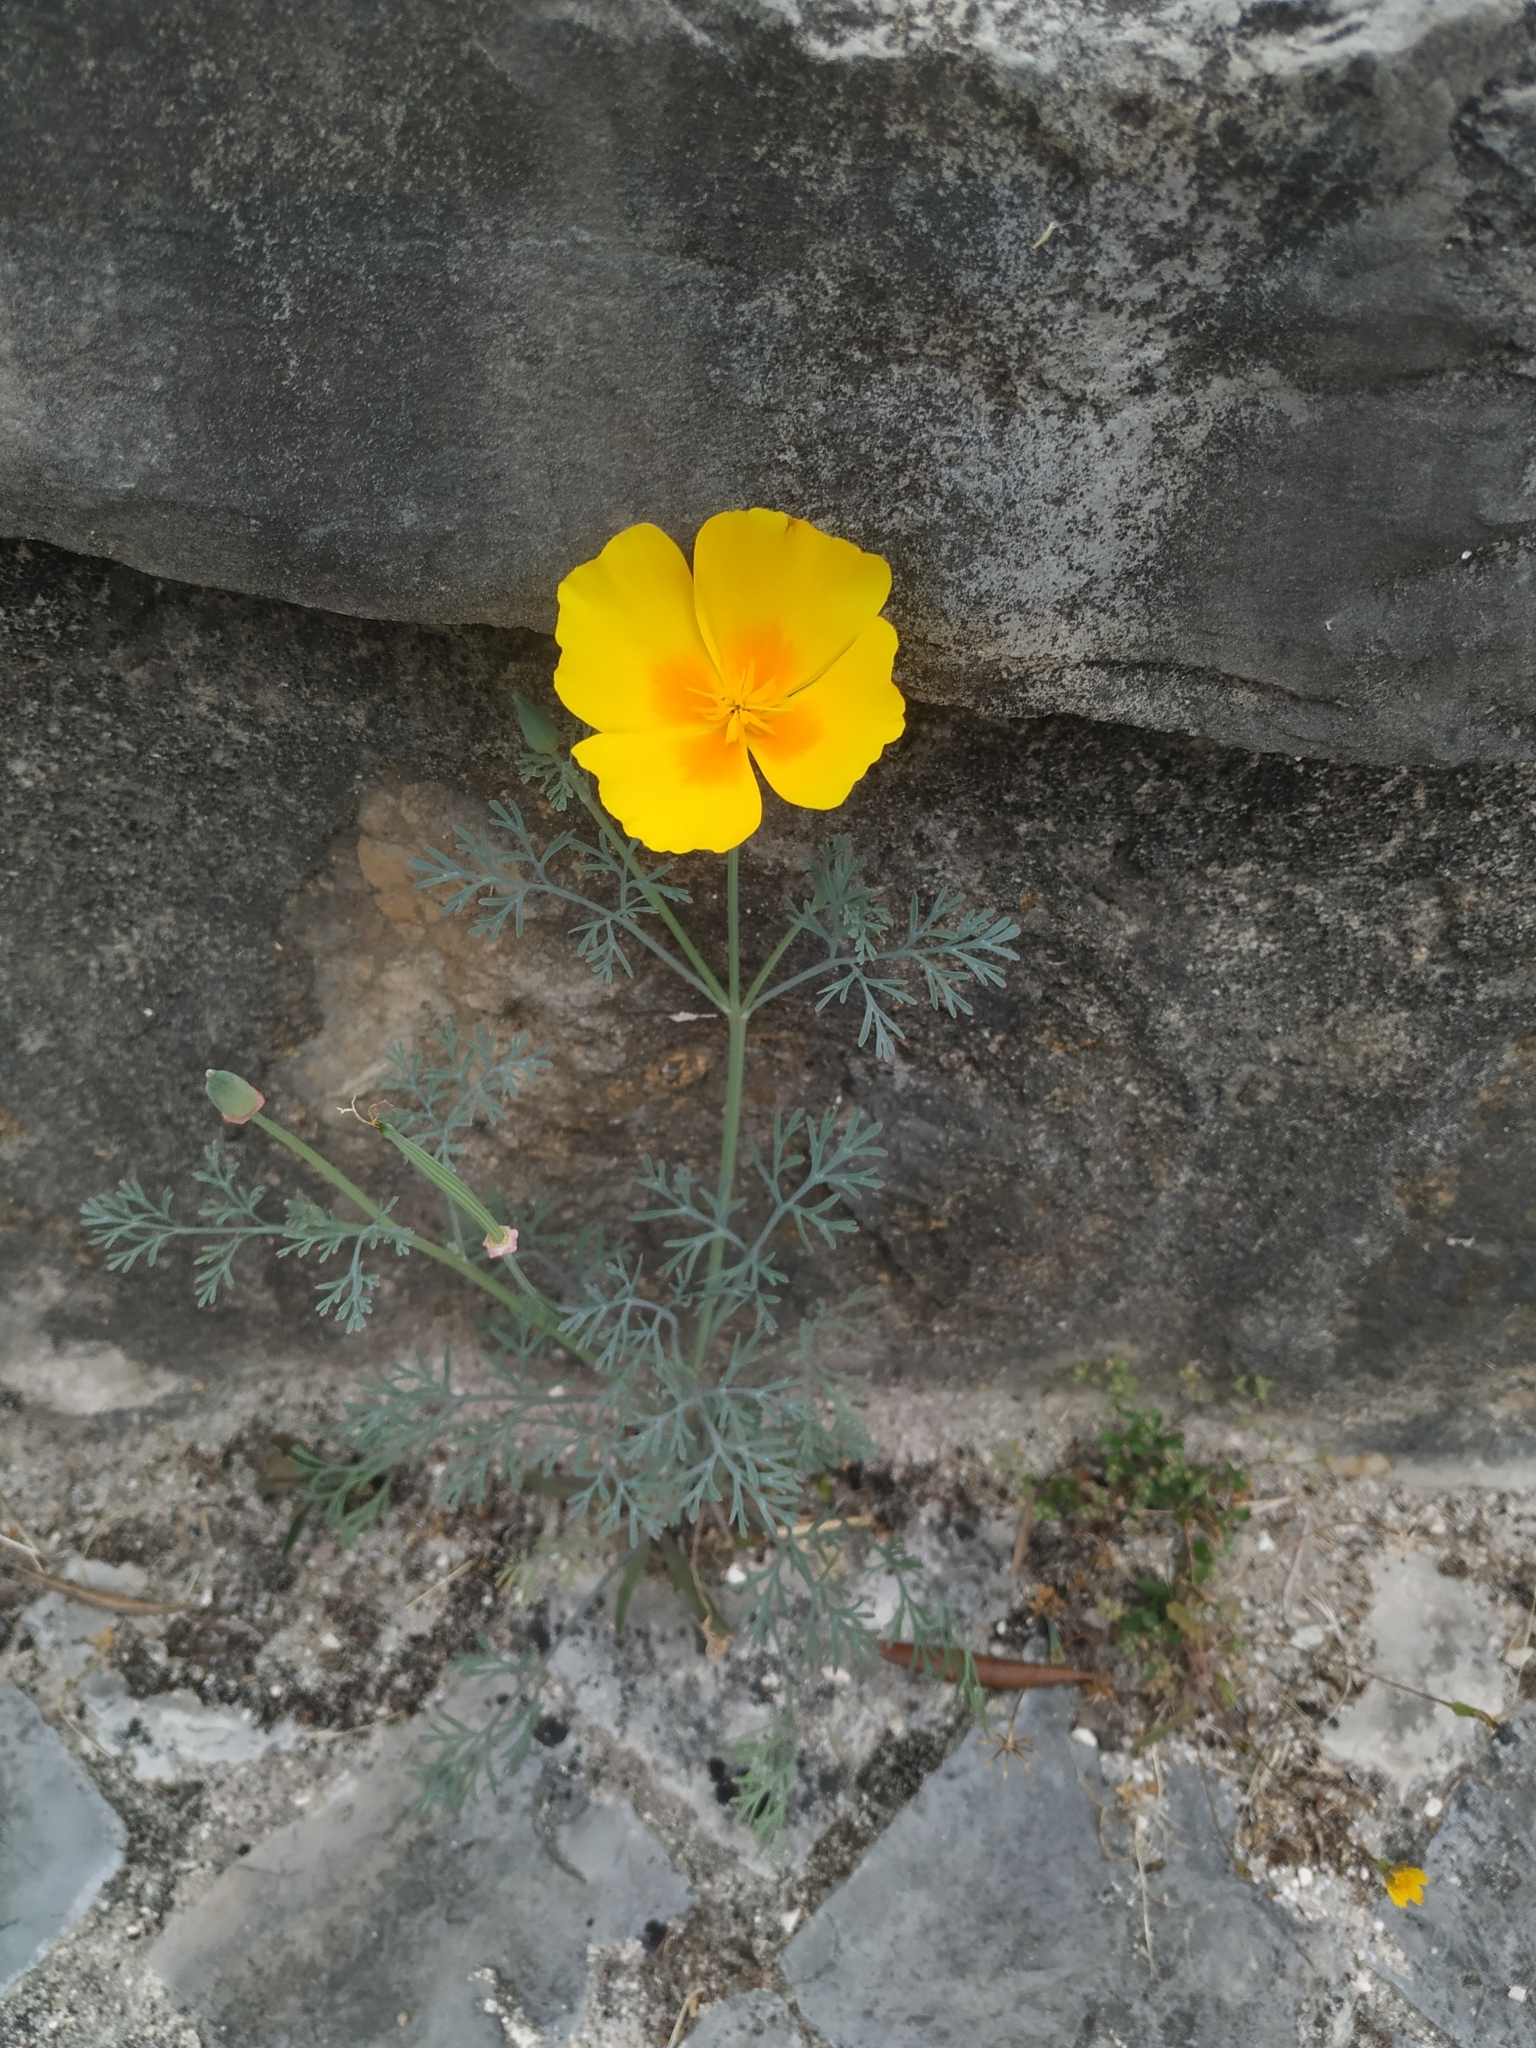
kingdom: Plantae
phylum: Tracheophyta
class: Magnoliopsida
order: Ranunculales
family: Papaveraceae
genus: Eschscholzia
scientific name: Eschscholzia californica
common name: California poppy
